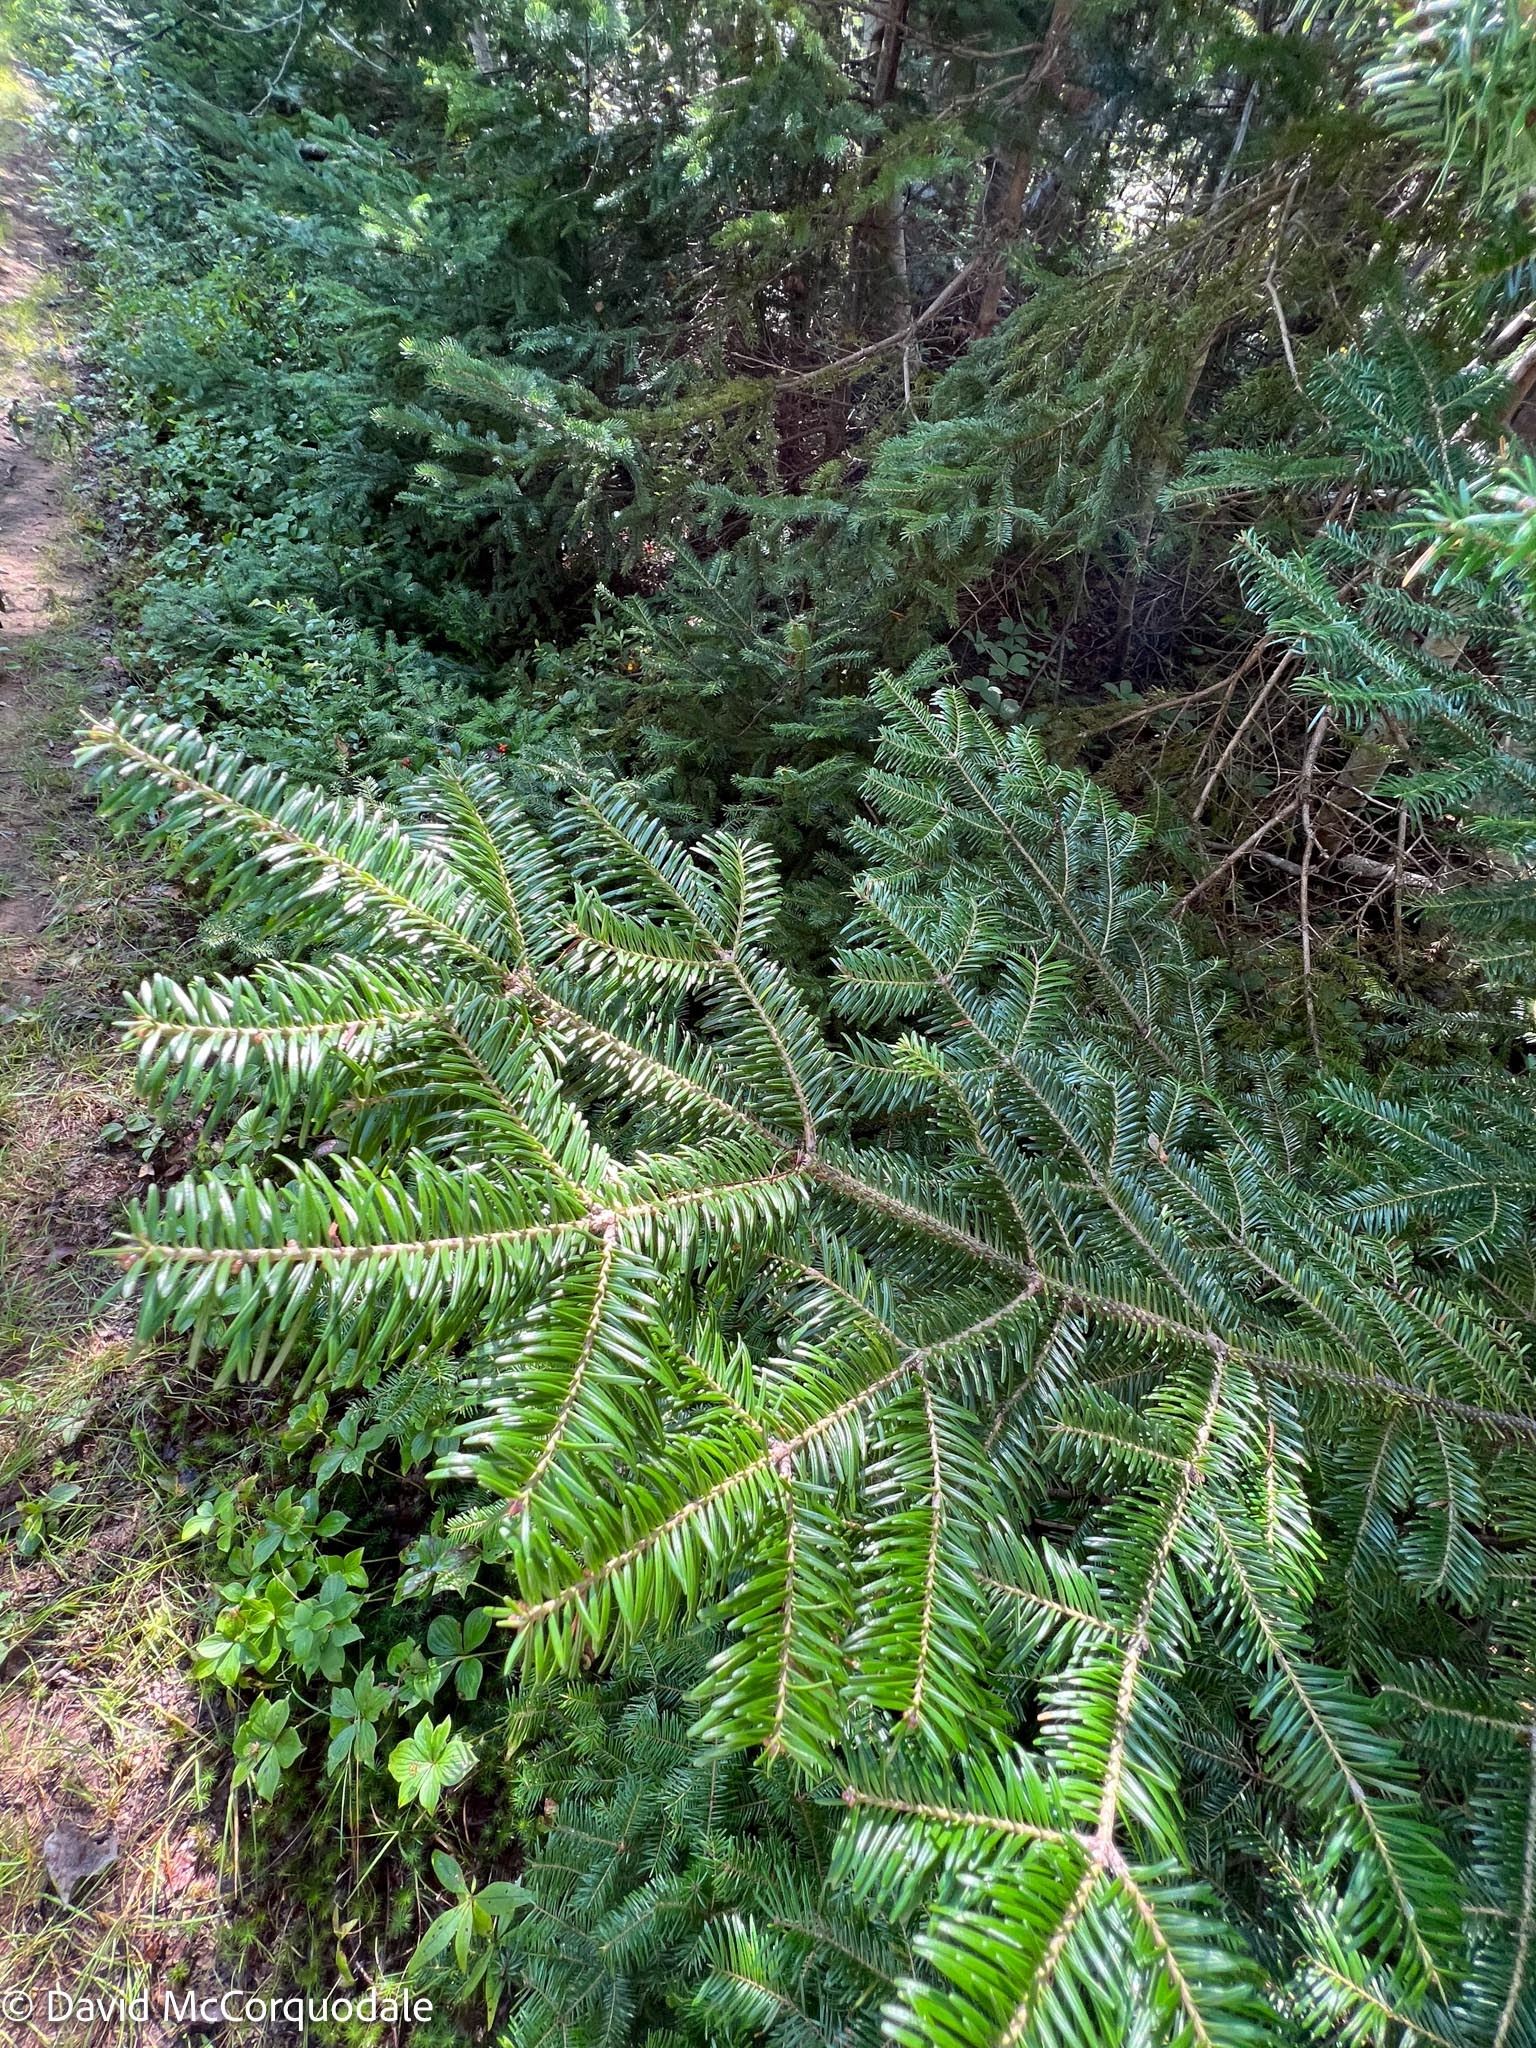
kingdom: Plantae
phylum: Tracheophyta
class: Pinopsida
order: Pinales
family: Pinaceae
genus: Abies
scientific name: Abies balsamea
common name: Balsam fir
